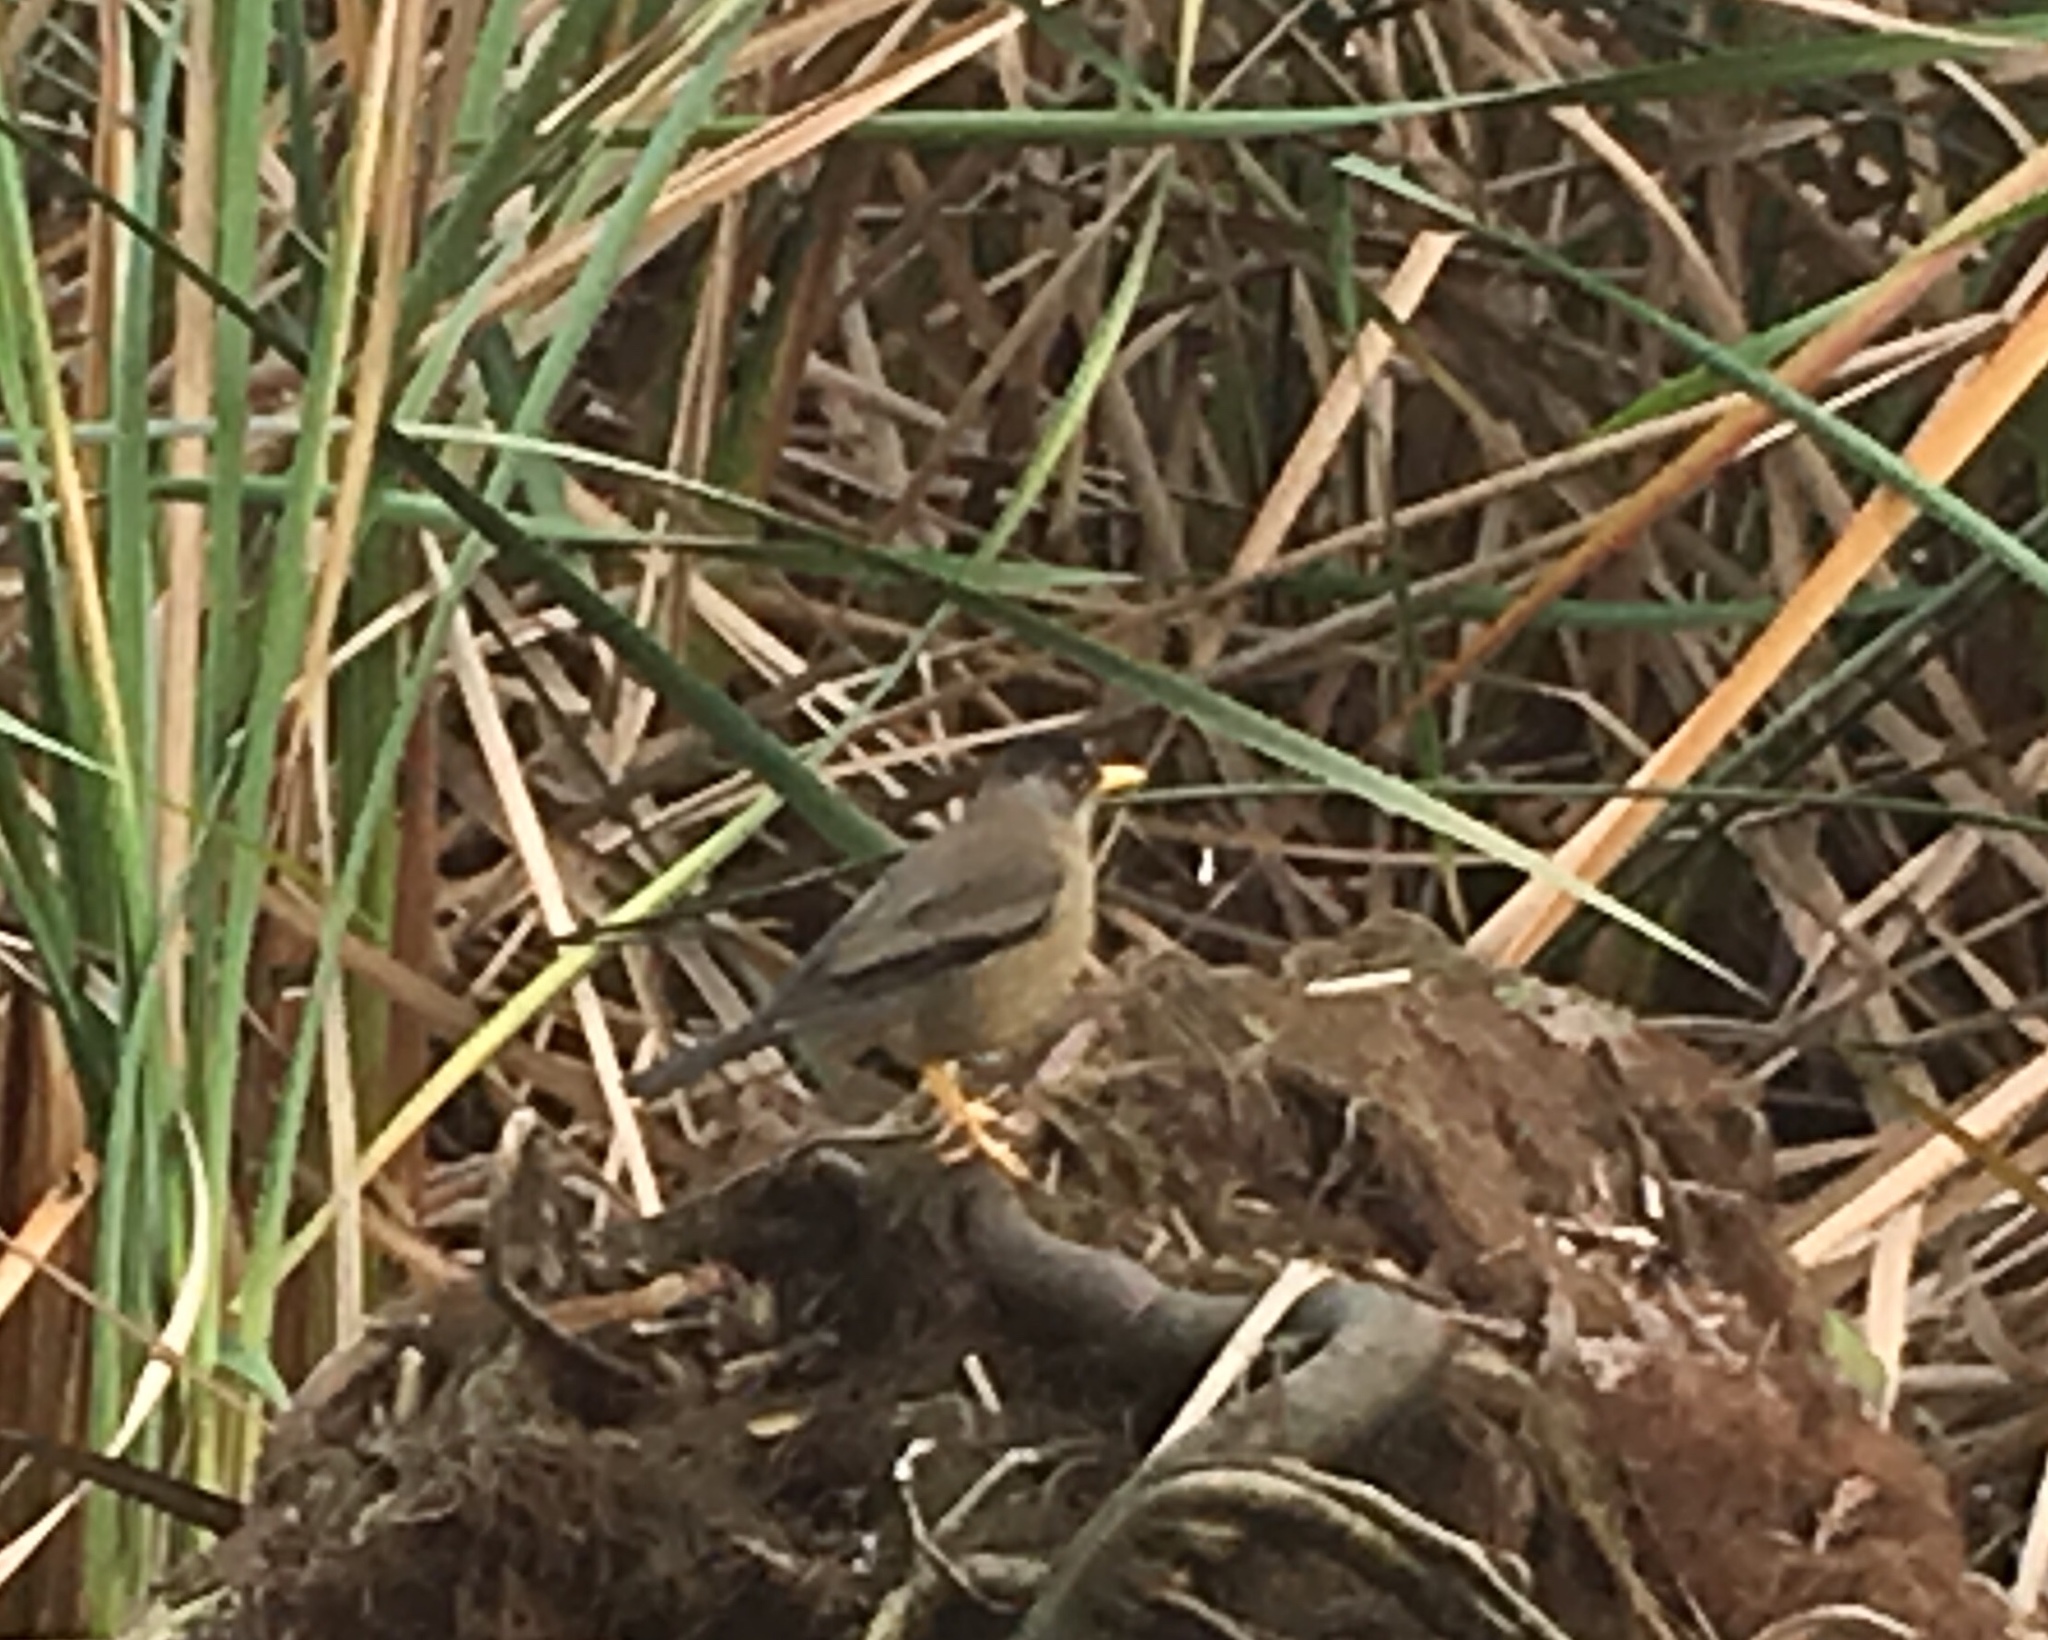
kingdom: Animalia
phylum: Chordata
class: Aves
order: Passeriformes
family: Turdidae
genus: Turdus
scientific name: Turdus falcklandii
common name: Austral thrush
